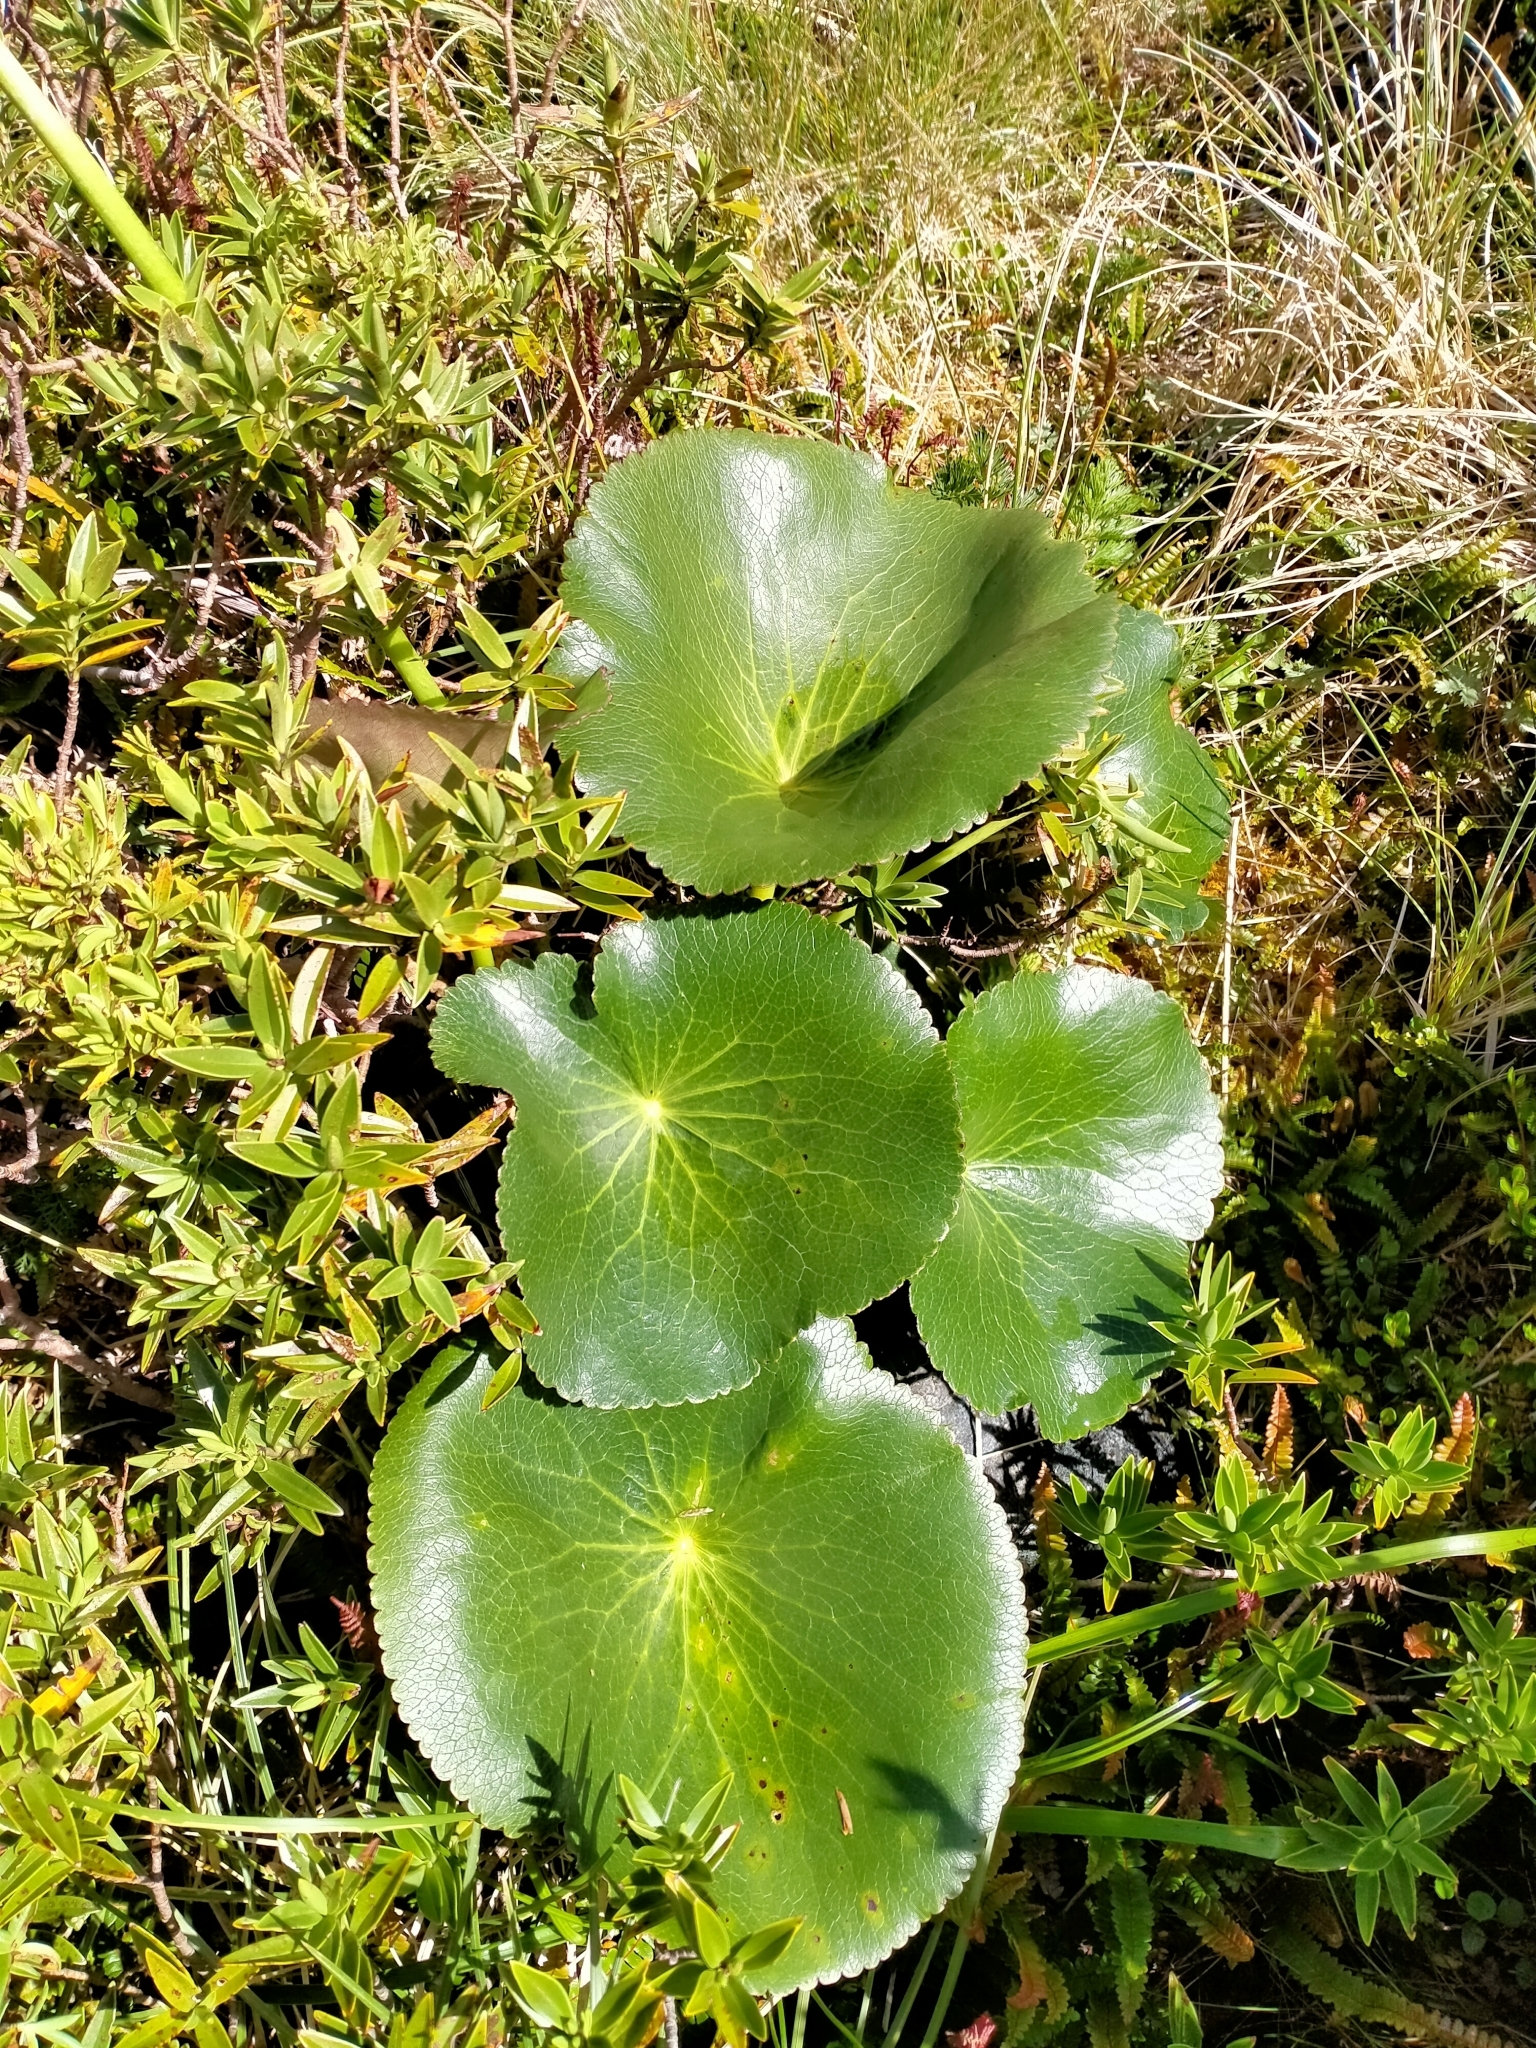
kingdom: Plantae
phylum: Tracheophyta
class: Magnoliopsida
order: Ranunculales
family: Ranunculaceae
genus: Ranunculus
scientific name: Ranunculus lyallii
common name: Mountain-lily
